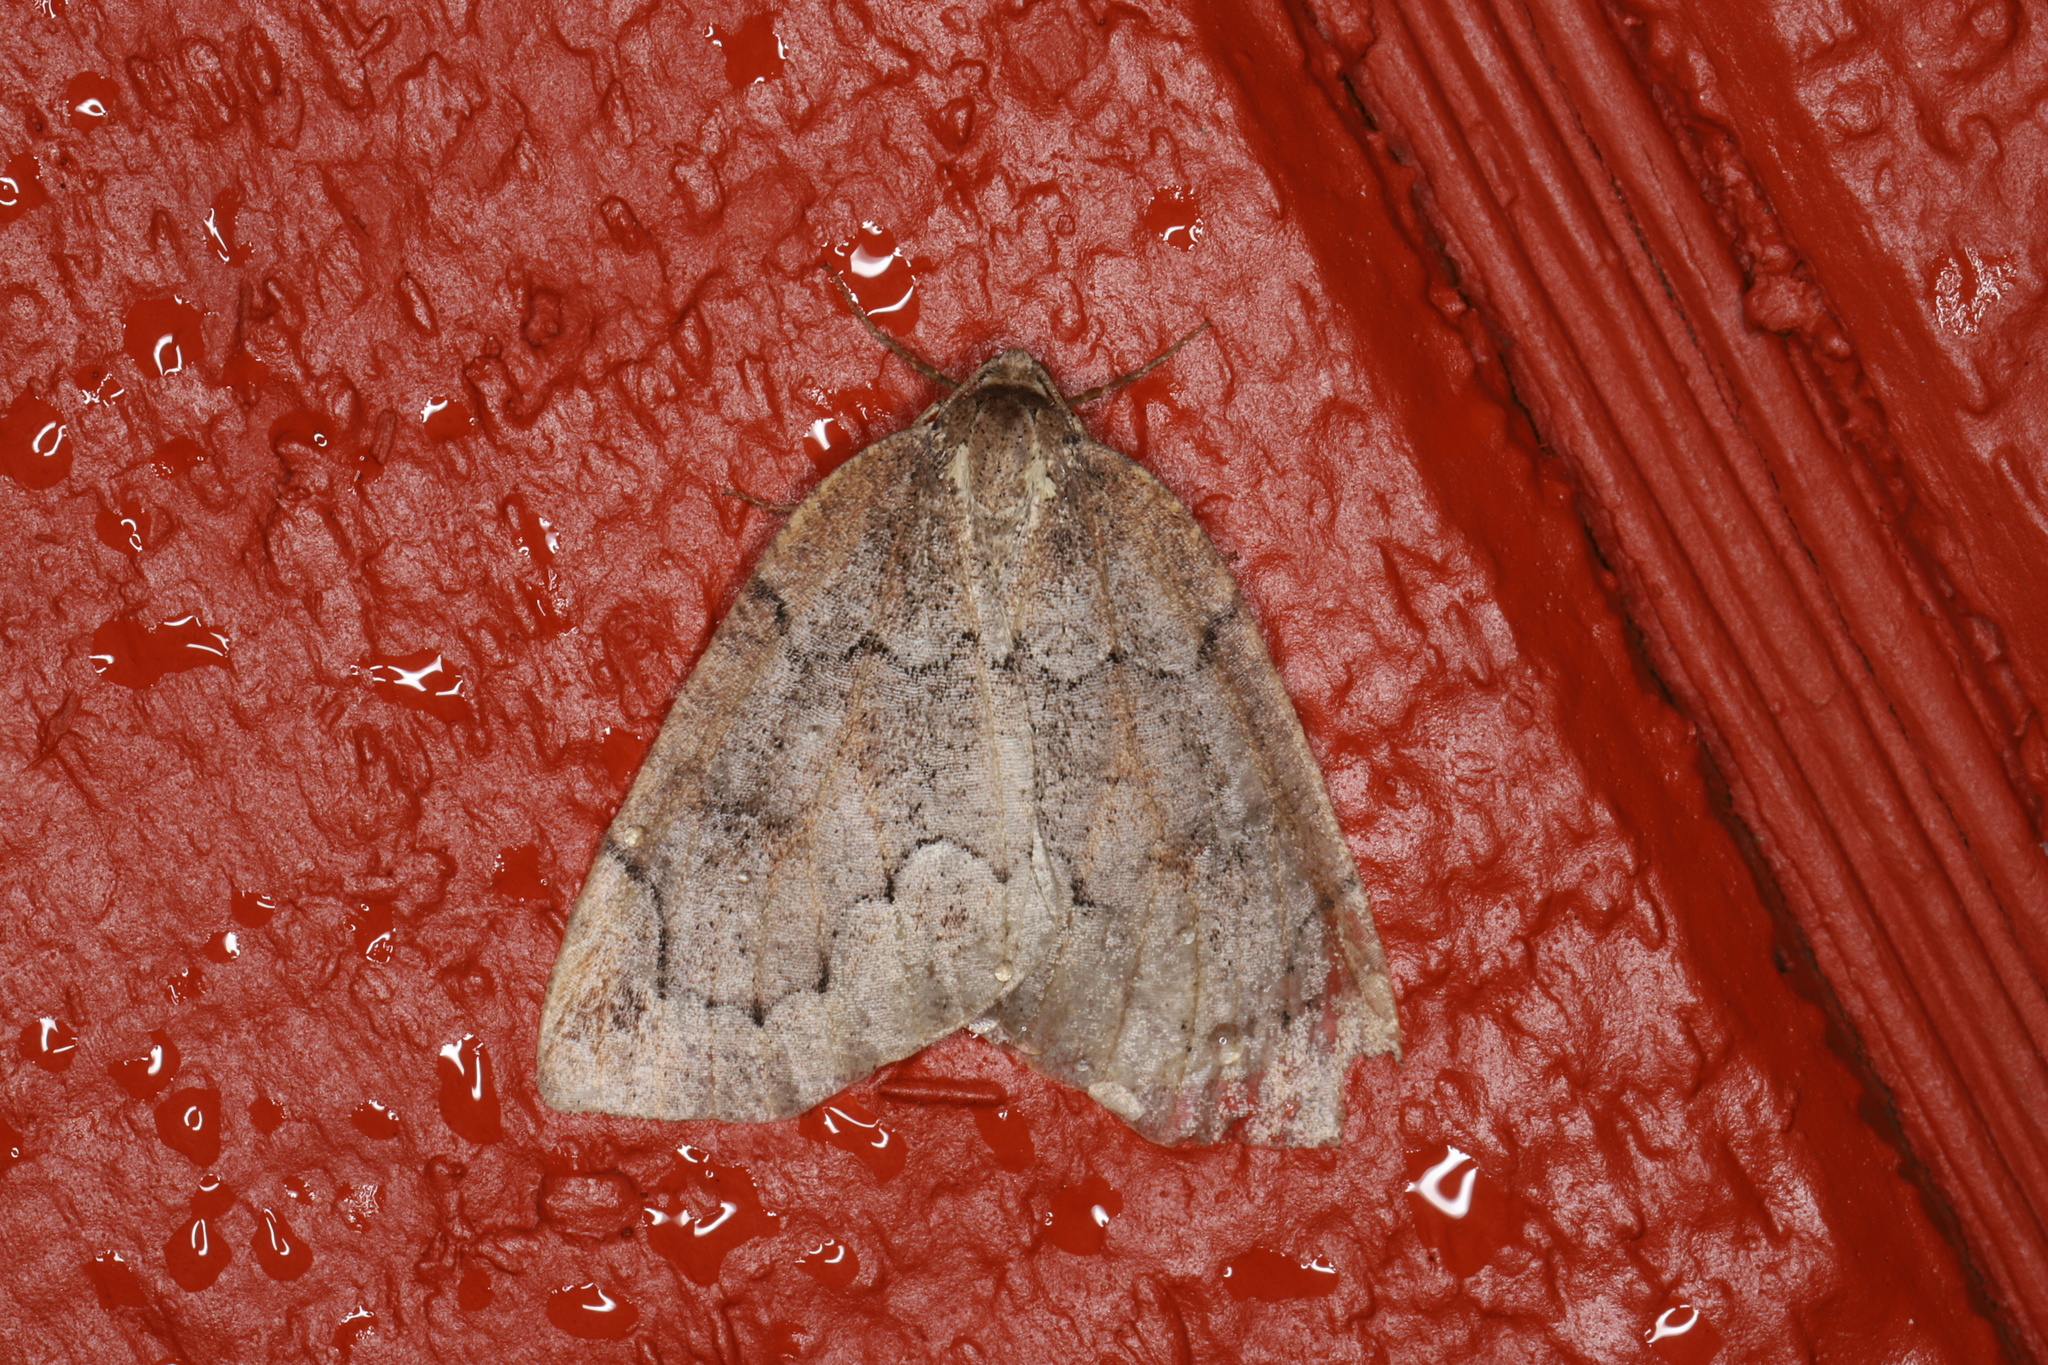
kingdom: Animalia
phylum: Arthropoda
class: Insecta
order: Lepidoptera
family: Geometridae
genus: Spodolepis
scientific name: Spodolepis substriataria
